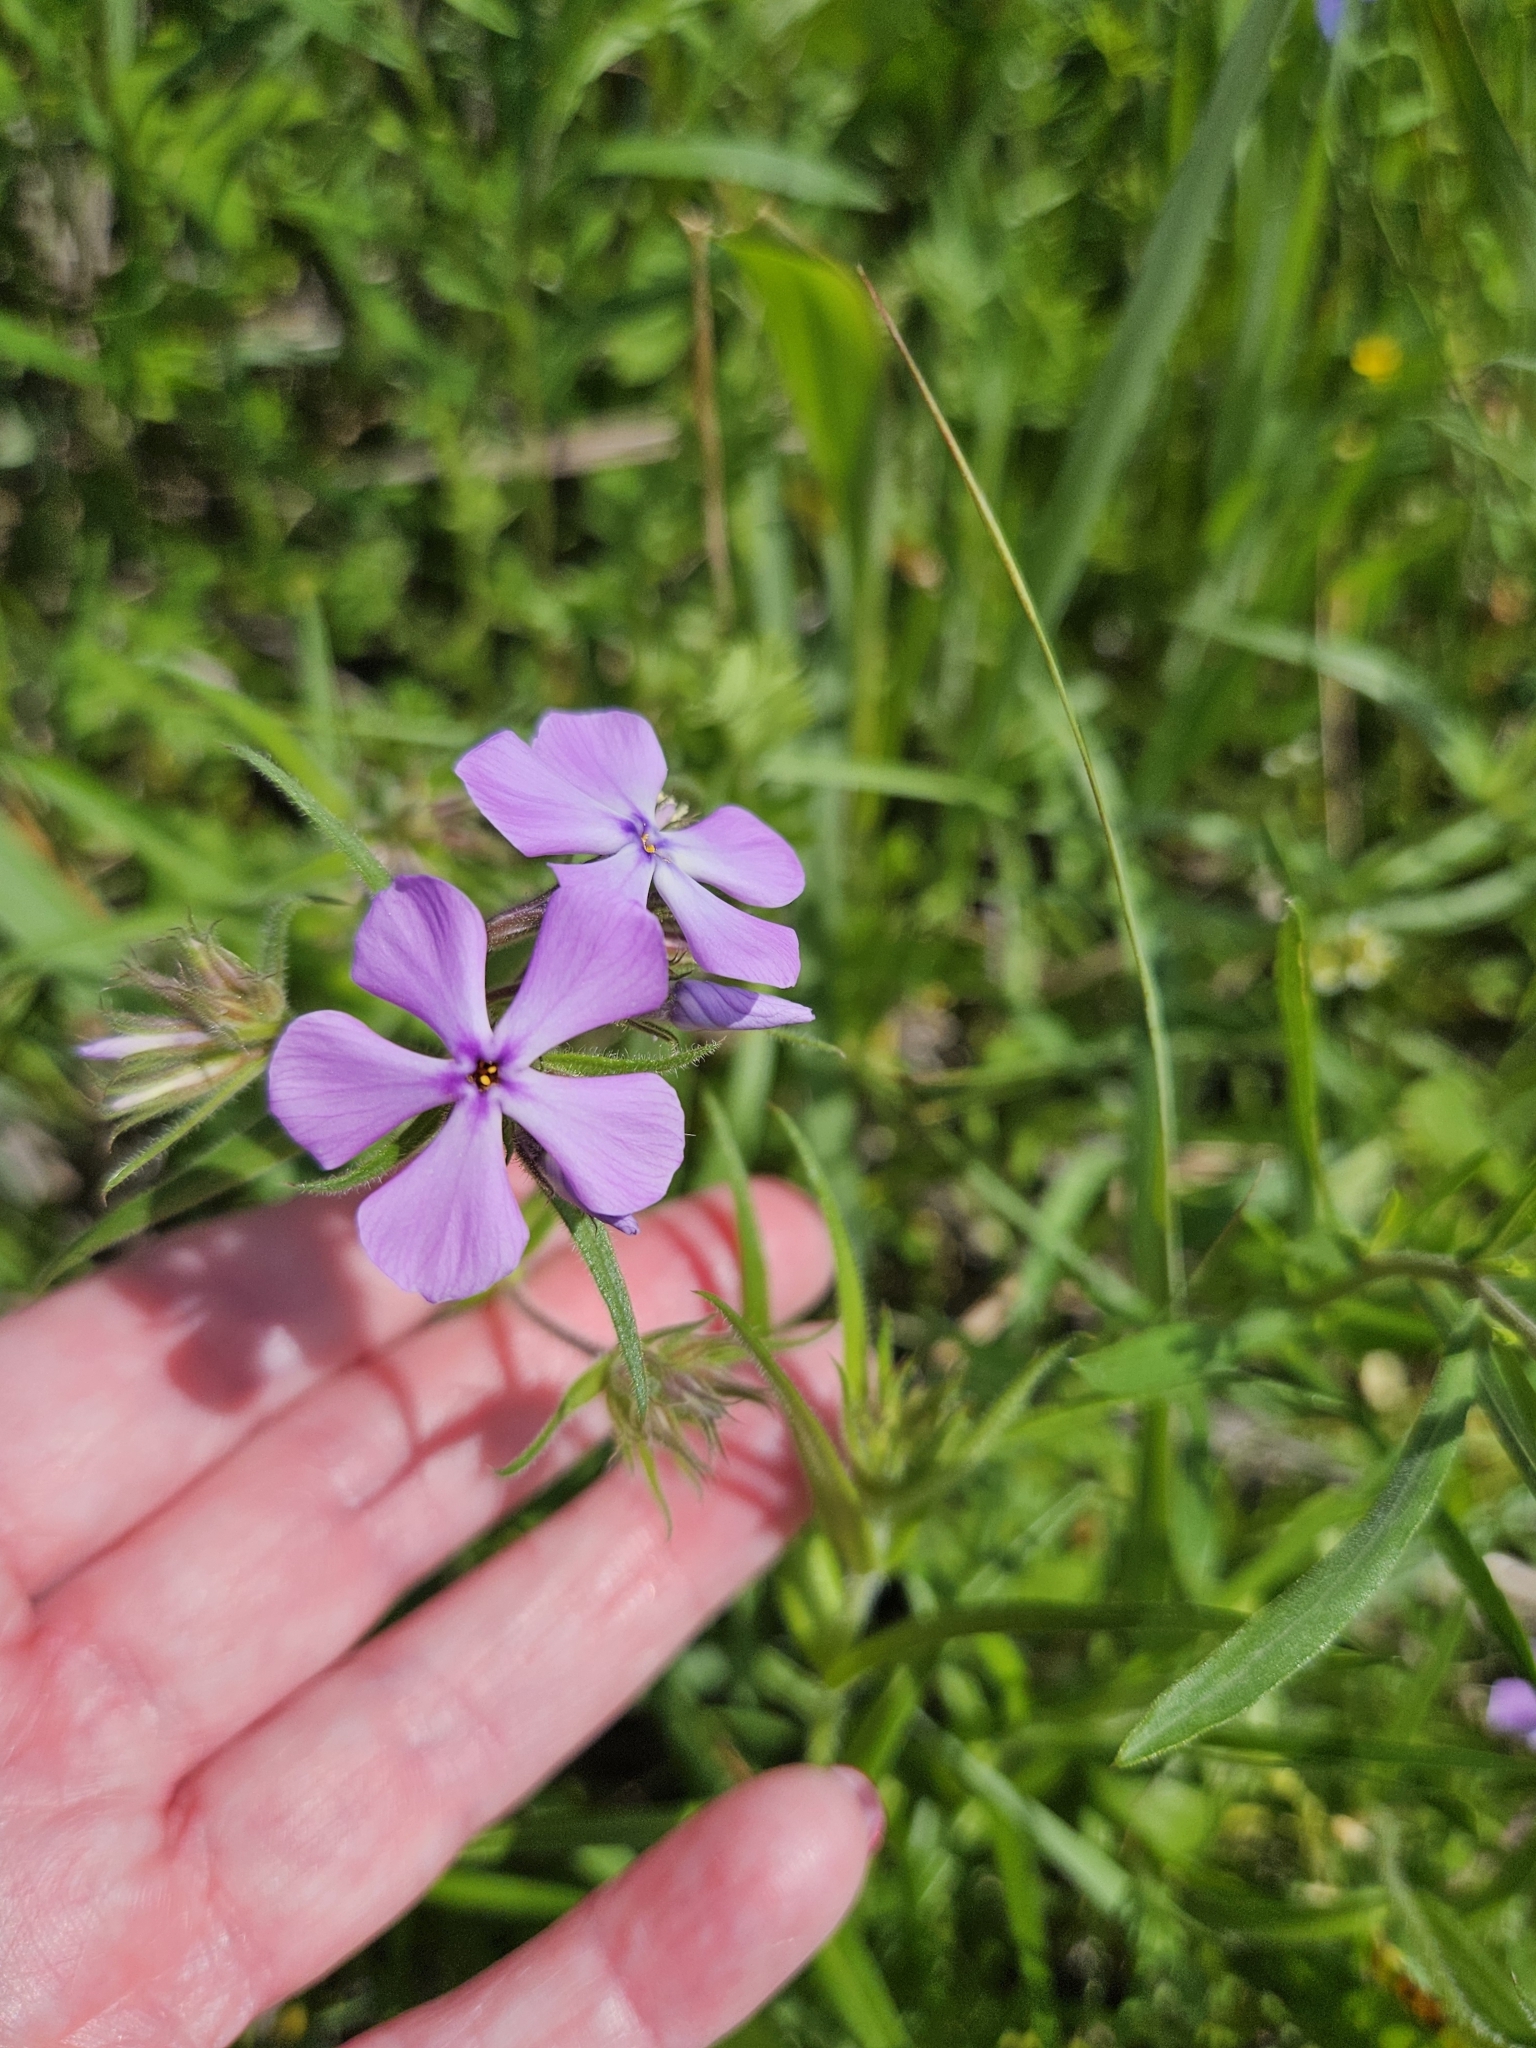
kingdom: Plantae
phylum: Tracheophyta
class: Magnoliopsida
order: Ericales
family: Polemoniaceae
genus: Phlox
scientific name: Phlox pilosa
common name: Prairie phlox
